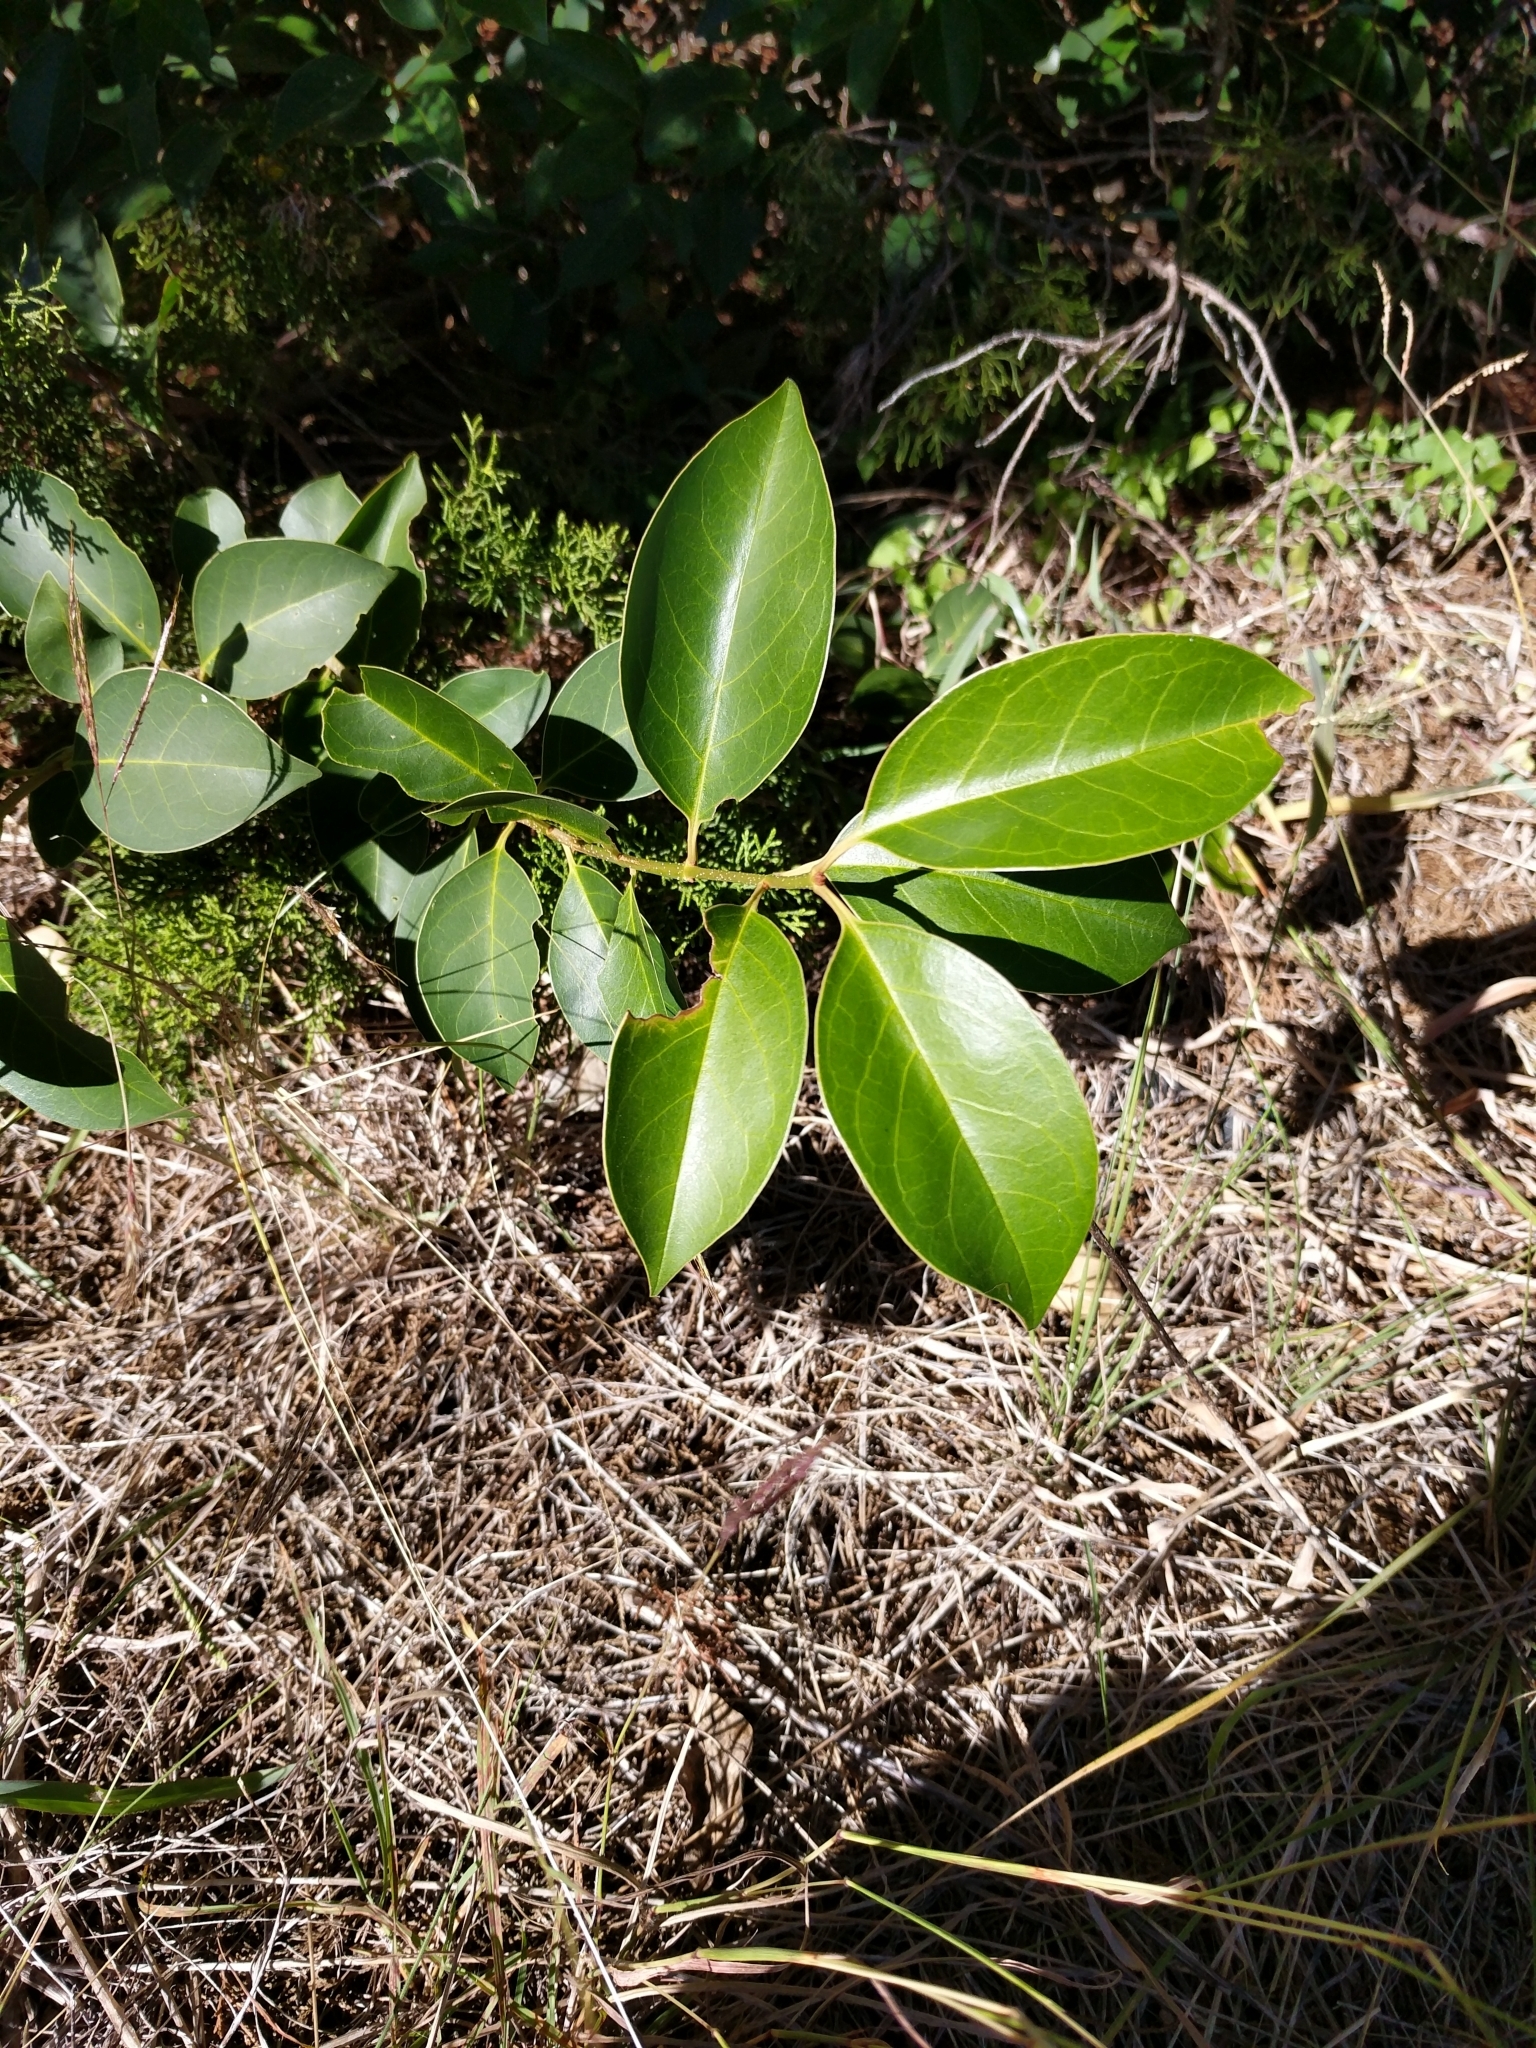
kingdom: Plantae
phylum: Tracheophyta
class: Magnoliopsida
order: Lamiales
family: Oleaceae
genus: Ligustrum
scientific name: Ligustrum lucidum
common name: Glossy privet
